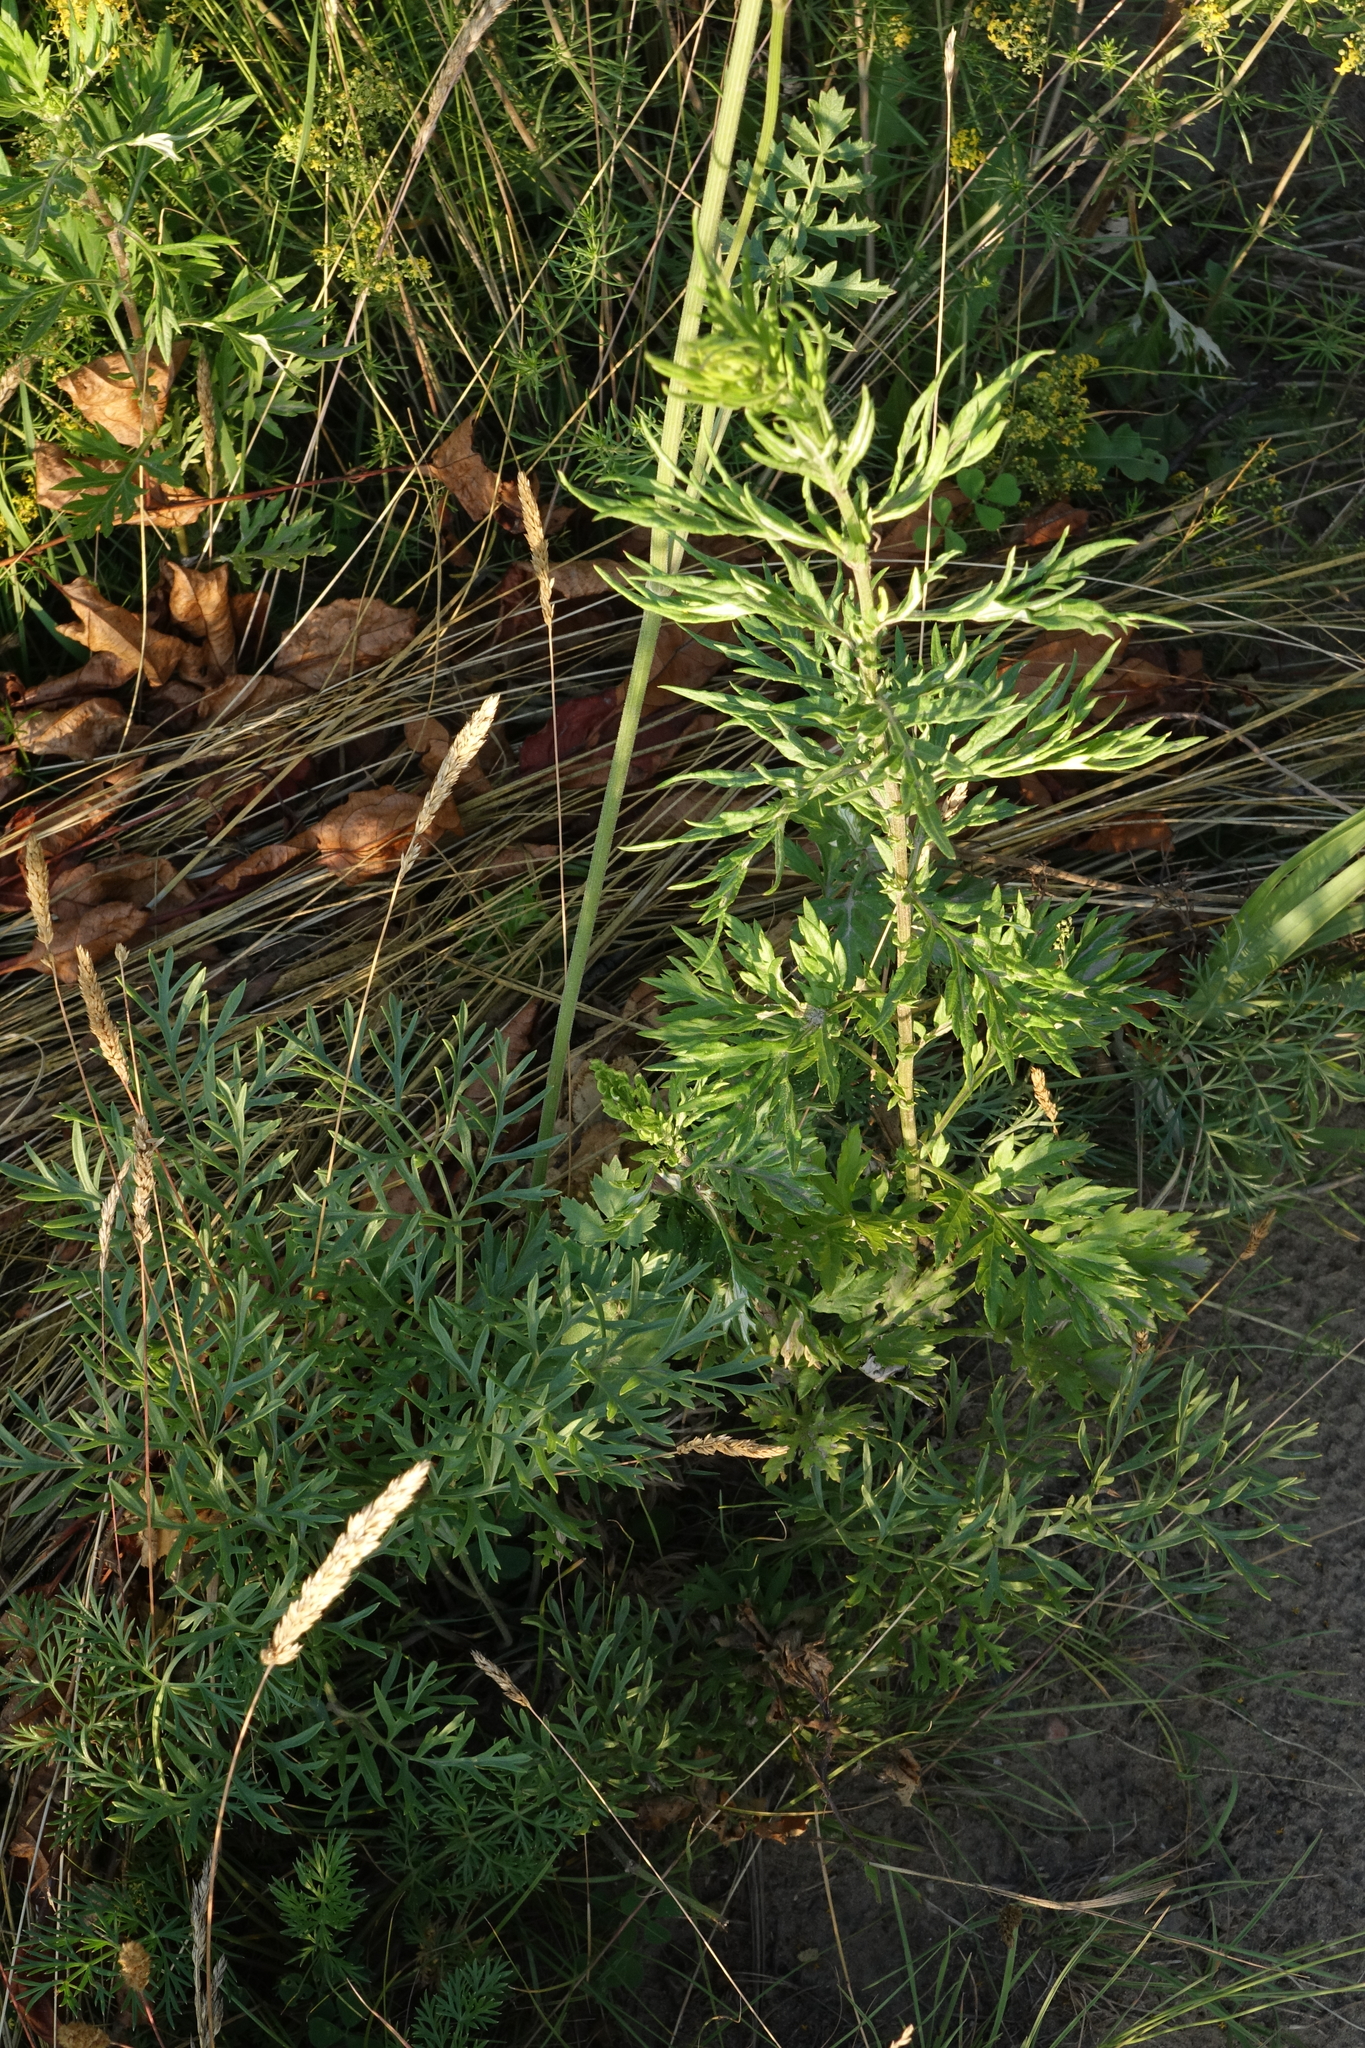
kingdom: Plantae
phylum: Tracheophyta
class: Magnoliopsida
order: Asterales
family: Asteraceae
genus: Artemisia
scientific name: Artemisia vulgaris
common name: Mugwort
